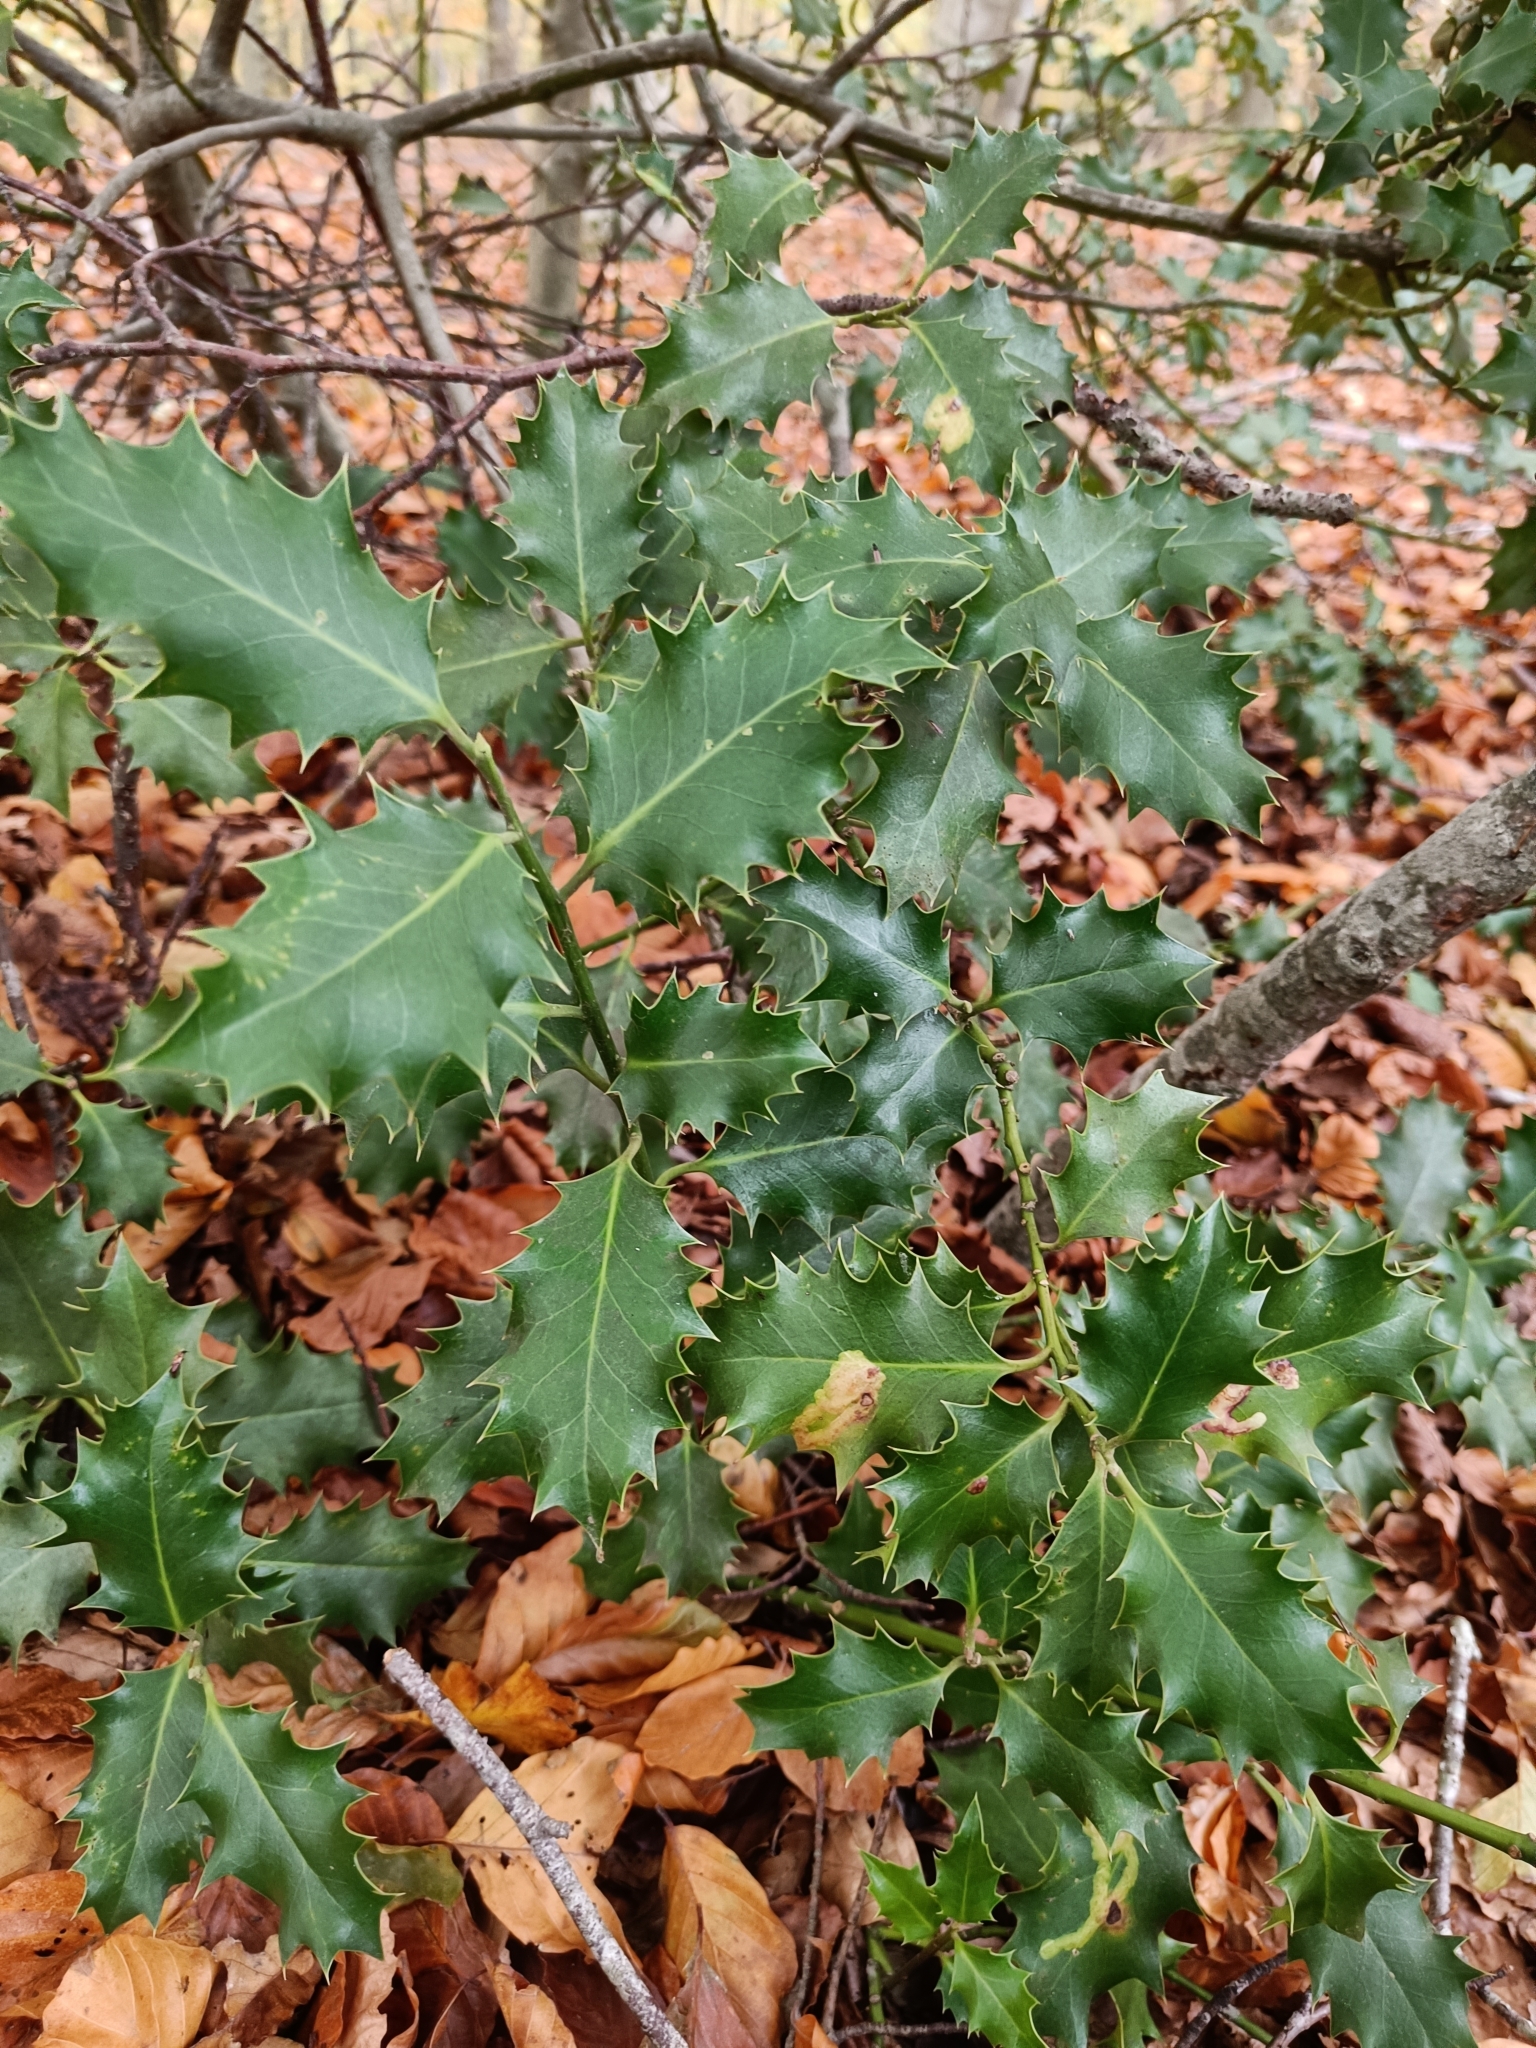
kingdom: Plantae
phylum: Tracheophyta
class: Magnoliopsida
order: Aquifoliales
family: Aquifoliaceae
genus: Ilex
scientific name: Ilex aquifolium
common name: English holly
